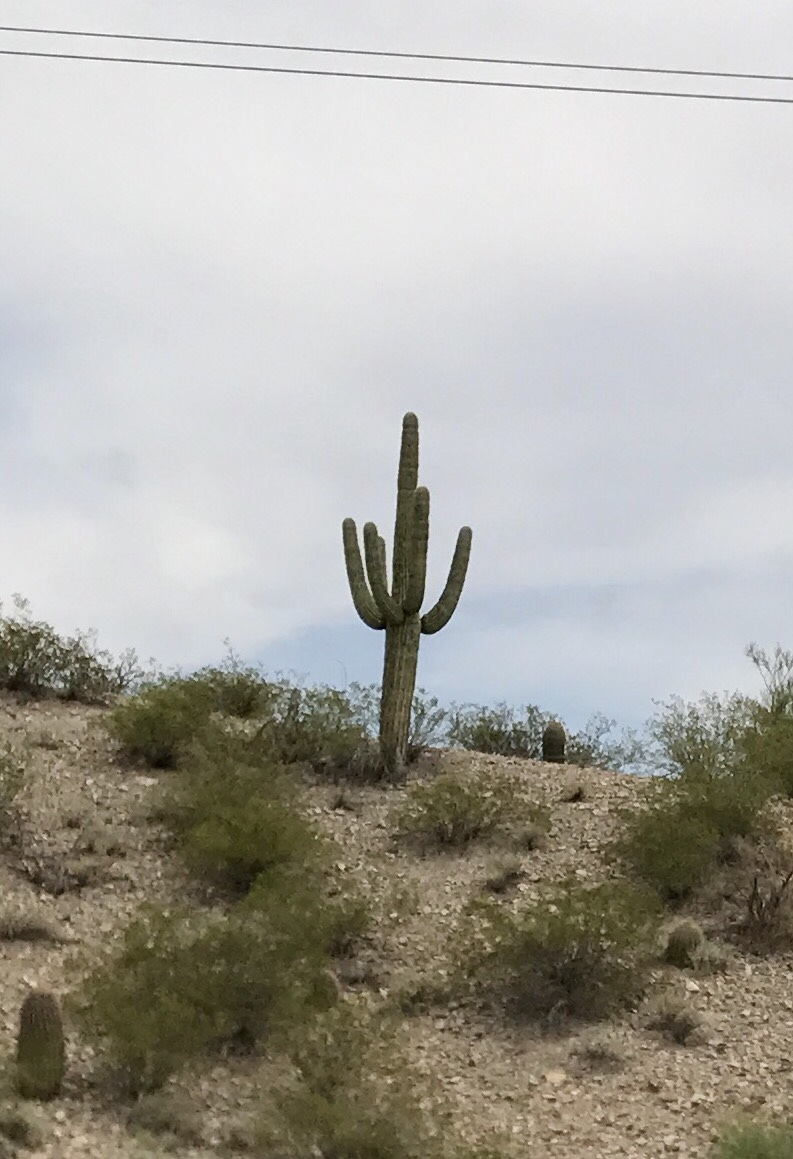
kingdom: Plantae
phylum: Tracheophyta
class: Magnoliopsida
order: Caryophyllales
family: Cactaceae
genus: Carnegiea
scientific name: Carnegiea gigantea
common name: Saguaro
